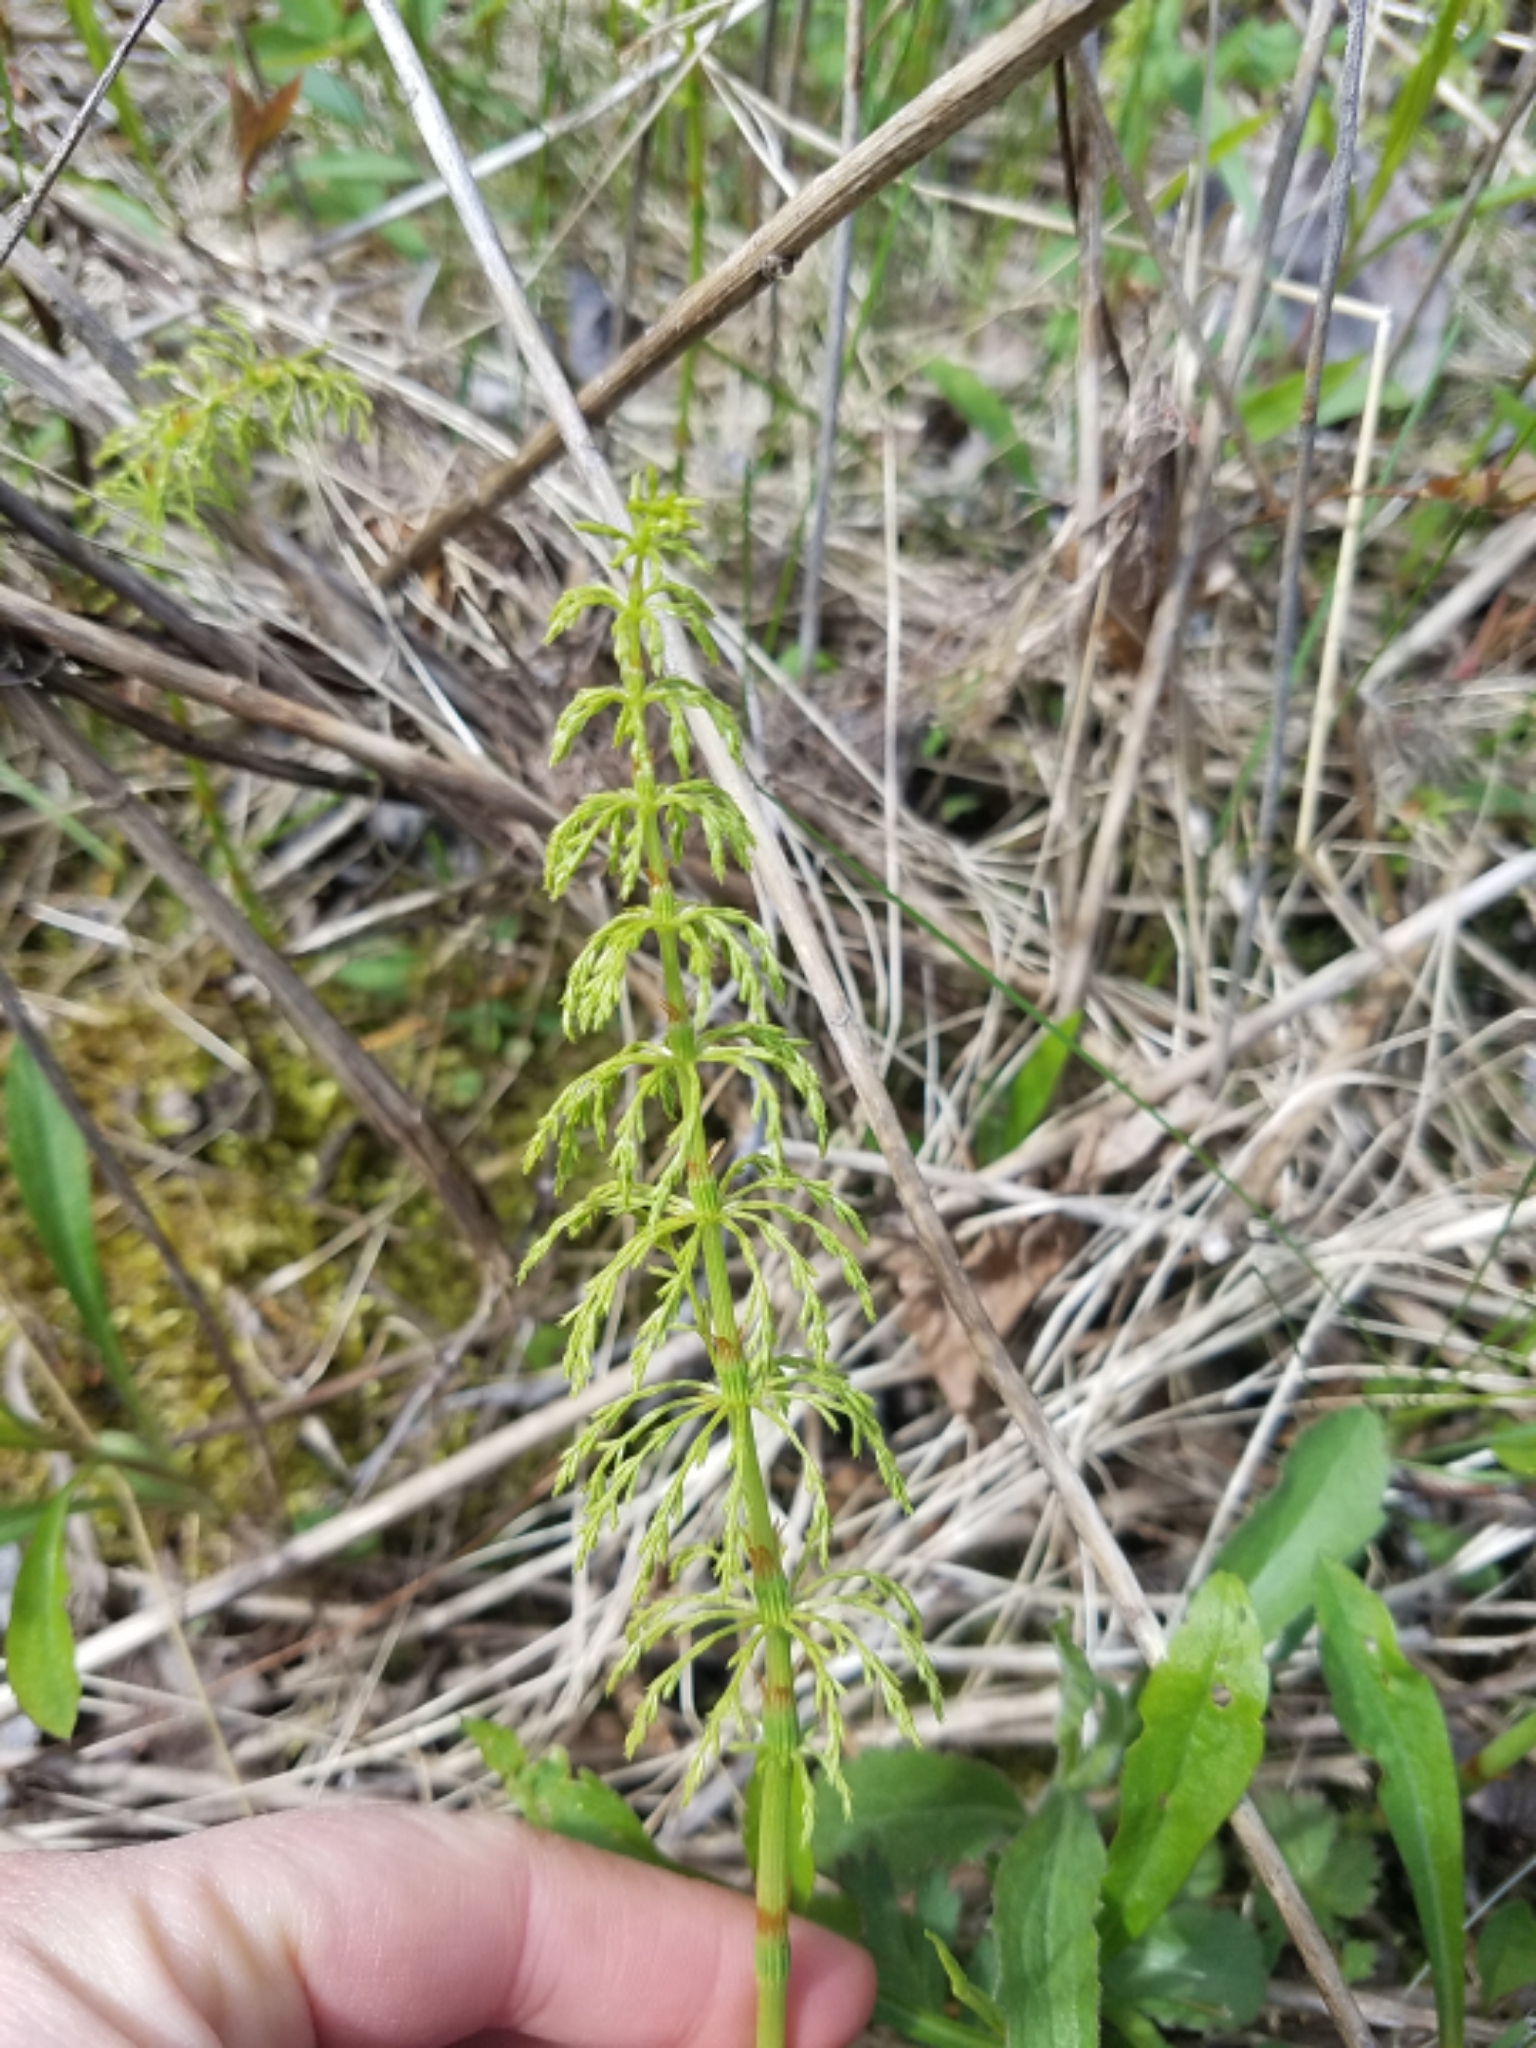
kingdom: Plantae
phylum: Tracheophyta
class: Polypodiopsida
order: Equisetales
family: Equisetaceae
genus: Equisetum
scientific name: Equisetum sylvaticum
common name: Wood horsetail
